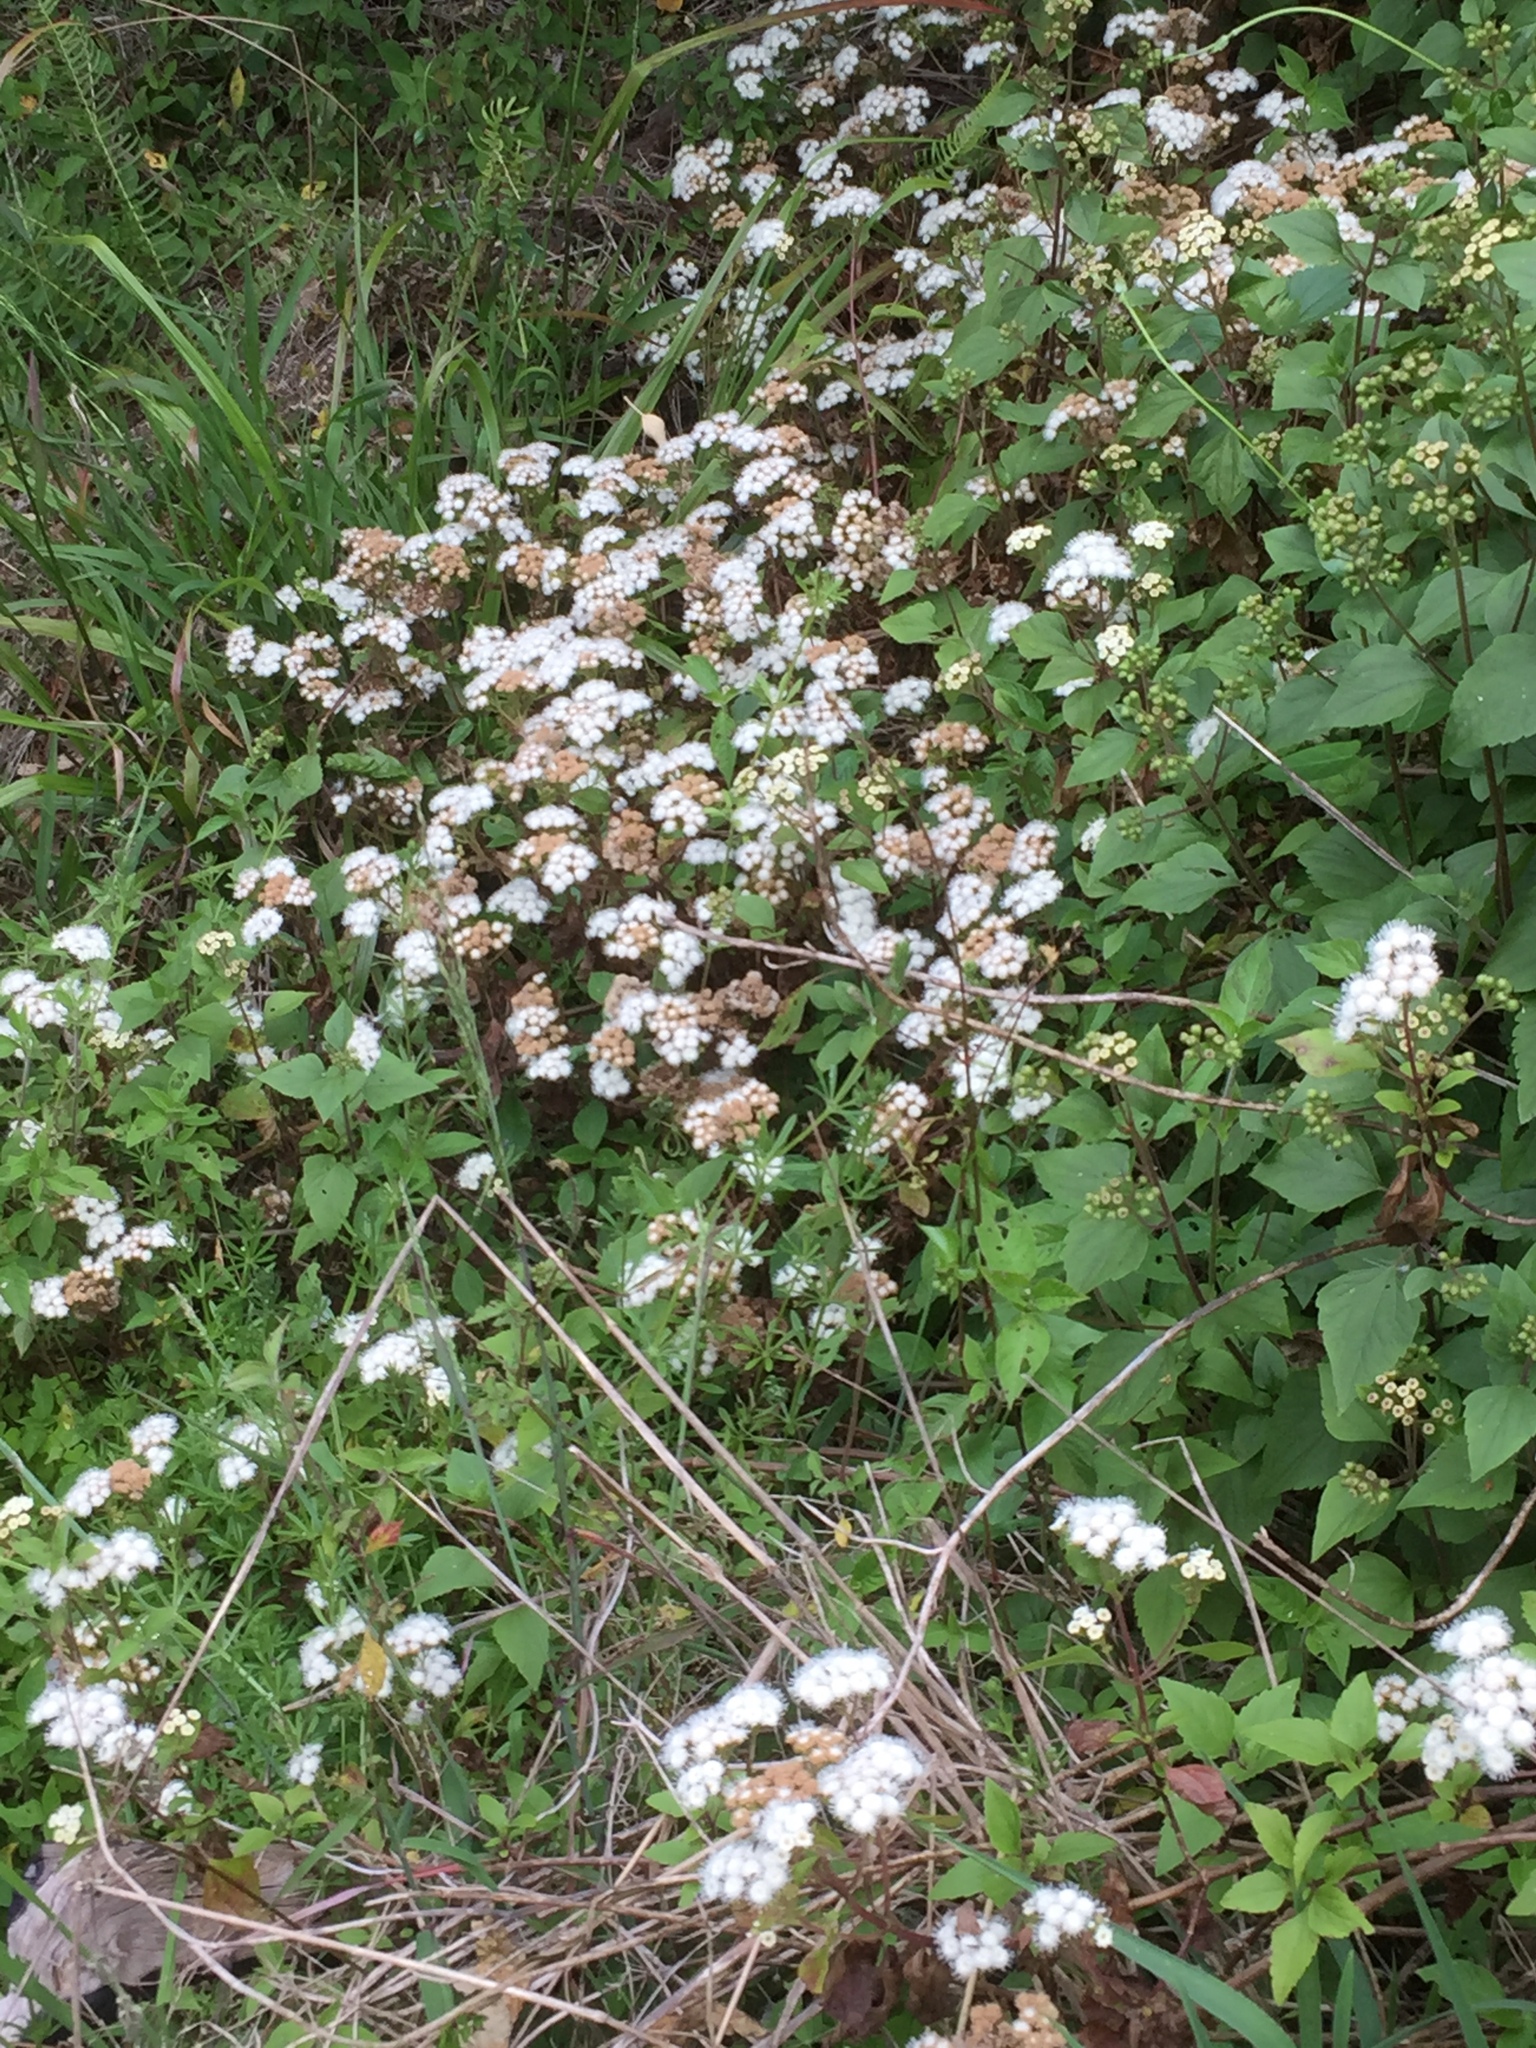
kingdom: Plantae
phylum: Tracheophyta
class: Magnoliopsida
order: Asterales
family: Asteraceae
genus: Ageratina
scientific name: Ageratina adenophora
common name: Sticky snakeroot
